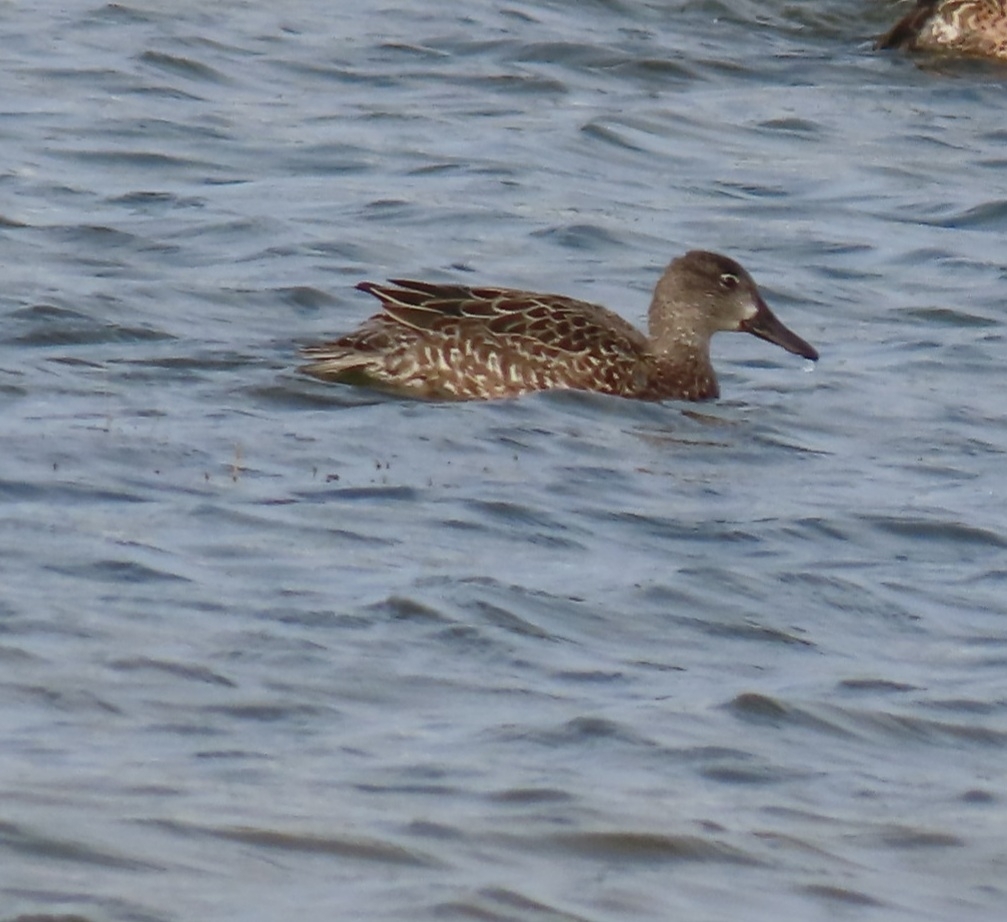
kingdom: Animalia
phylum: Chordata
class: Aves
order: Anseriformes
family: Anatidae
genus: Spatula
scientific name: Spatula discors
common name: Blue-winged teal
